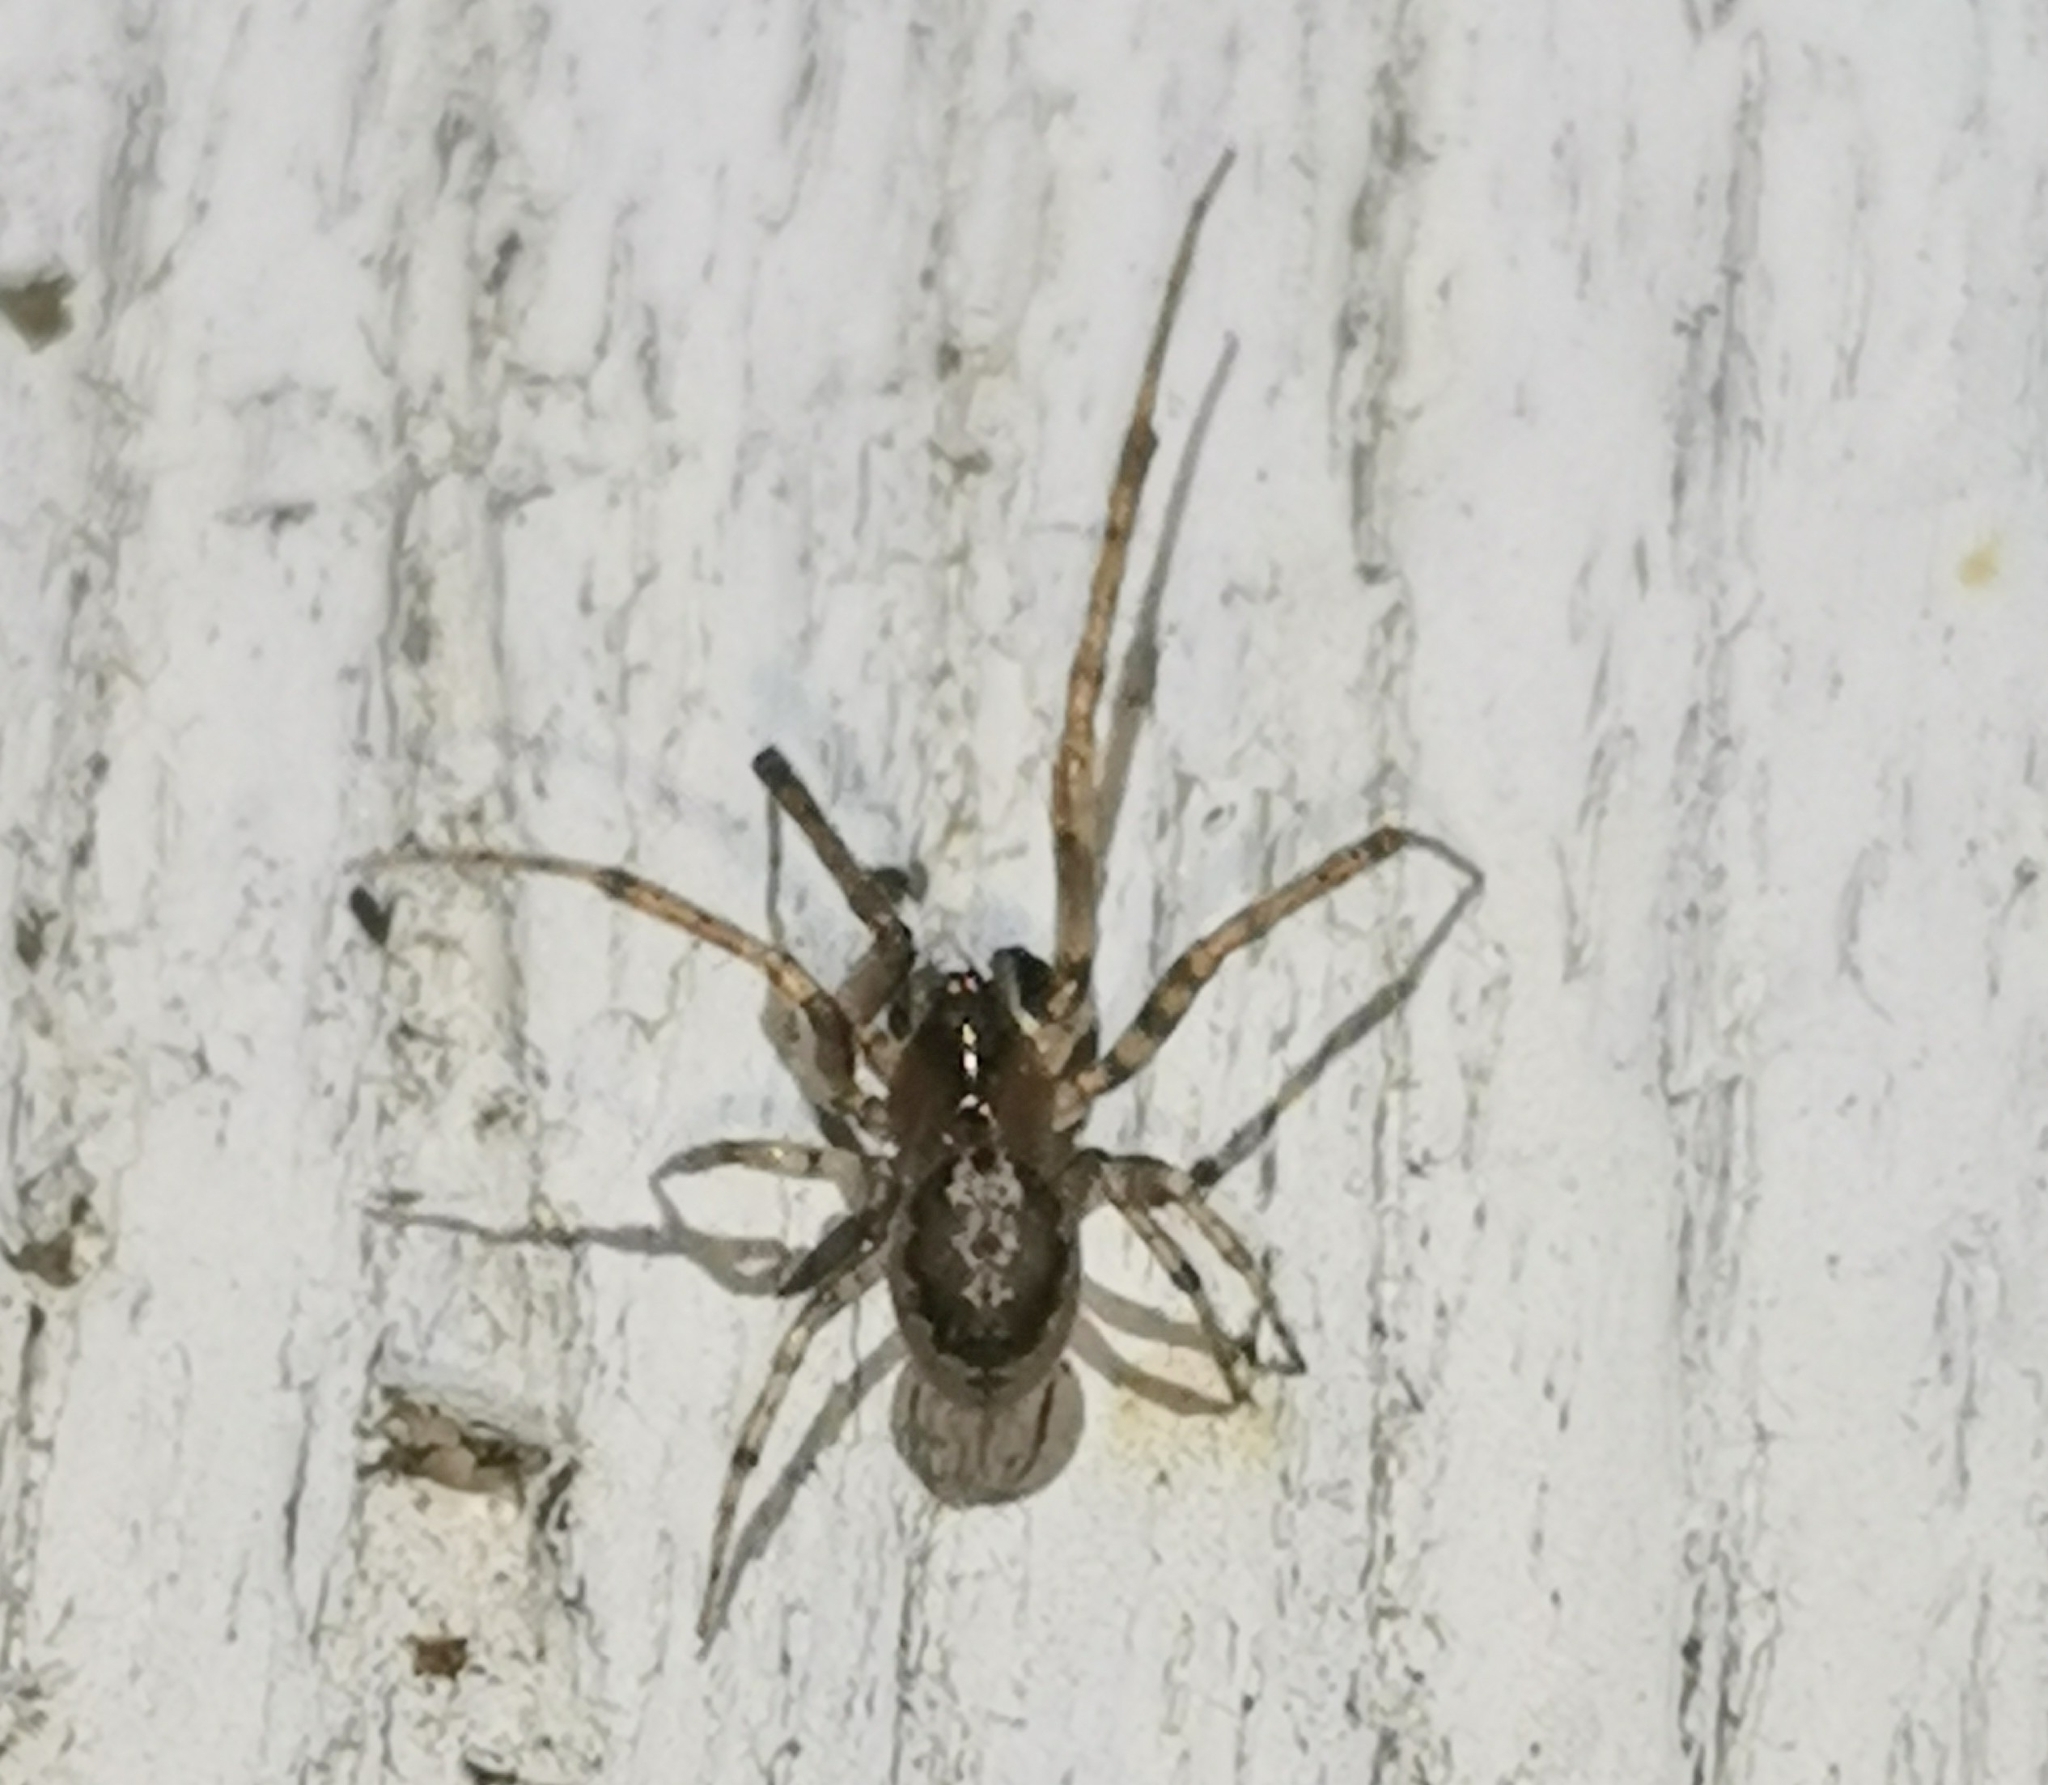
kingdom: Animalia
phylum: Arthropoda
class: Arachnida
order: Araneae
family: Araneidae
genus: Leviellus
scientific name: Leviellus stroemi
